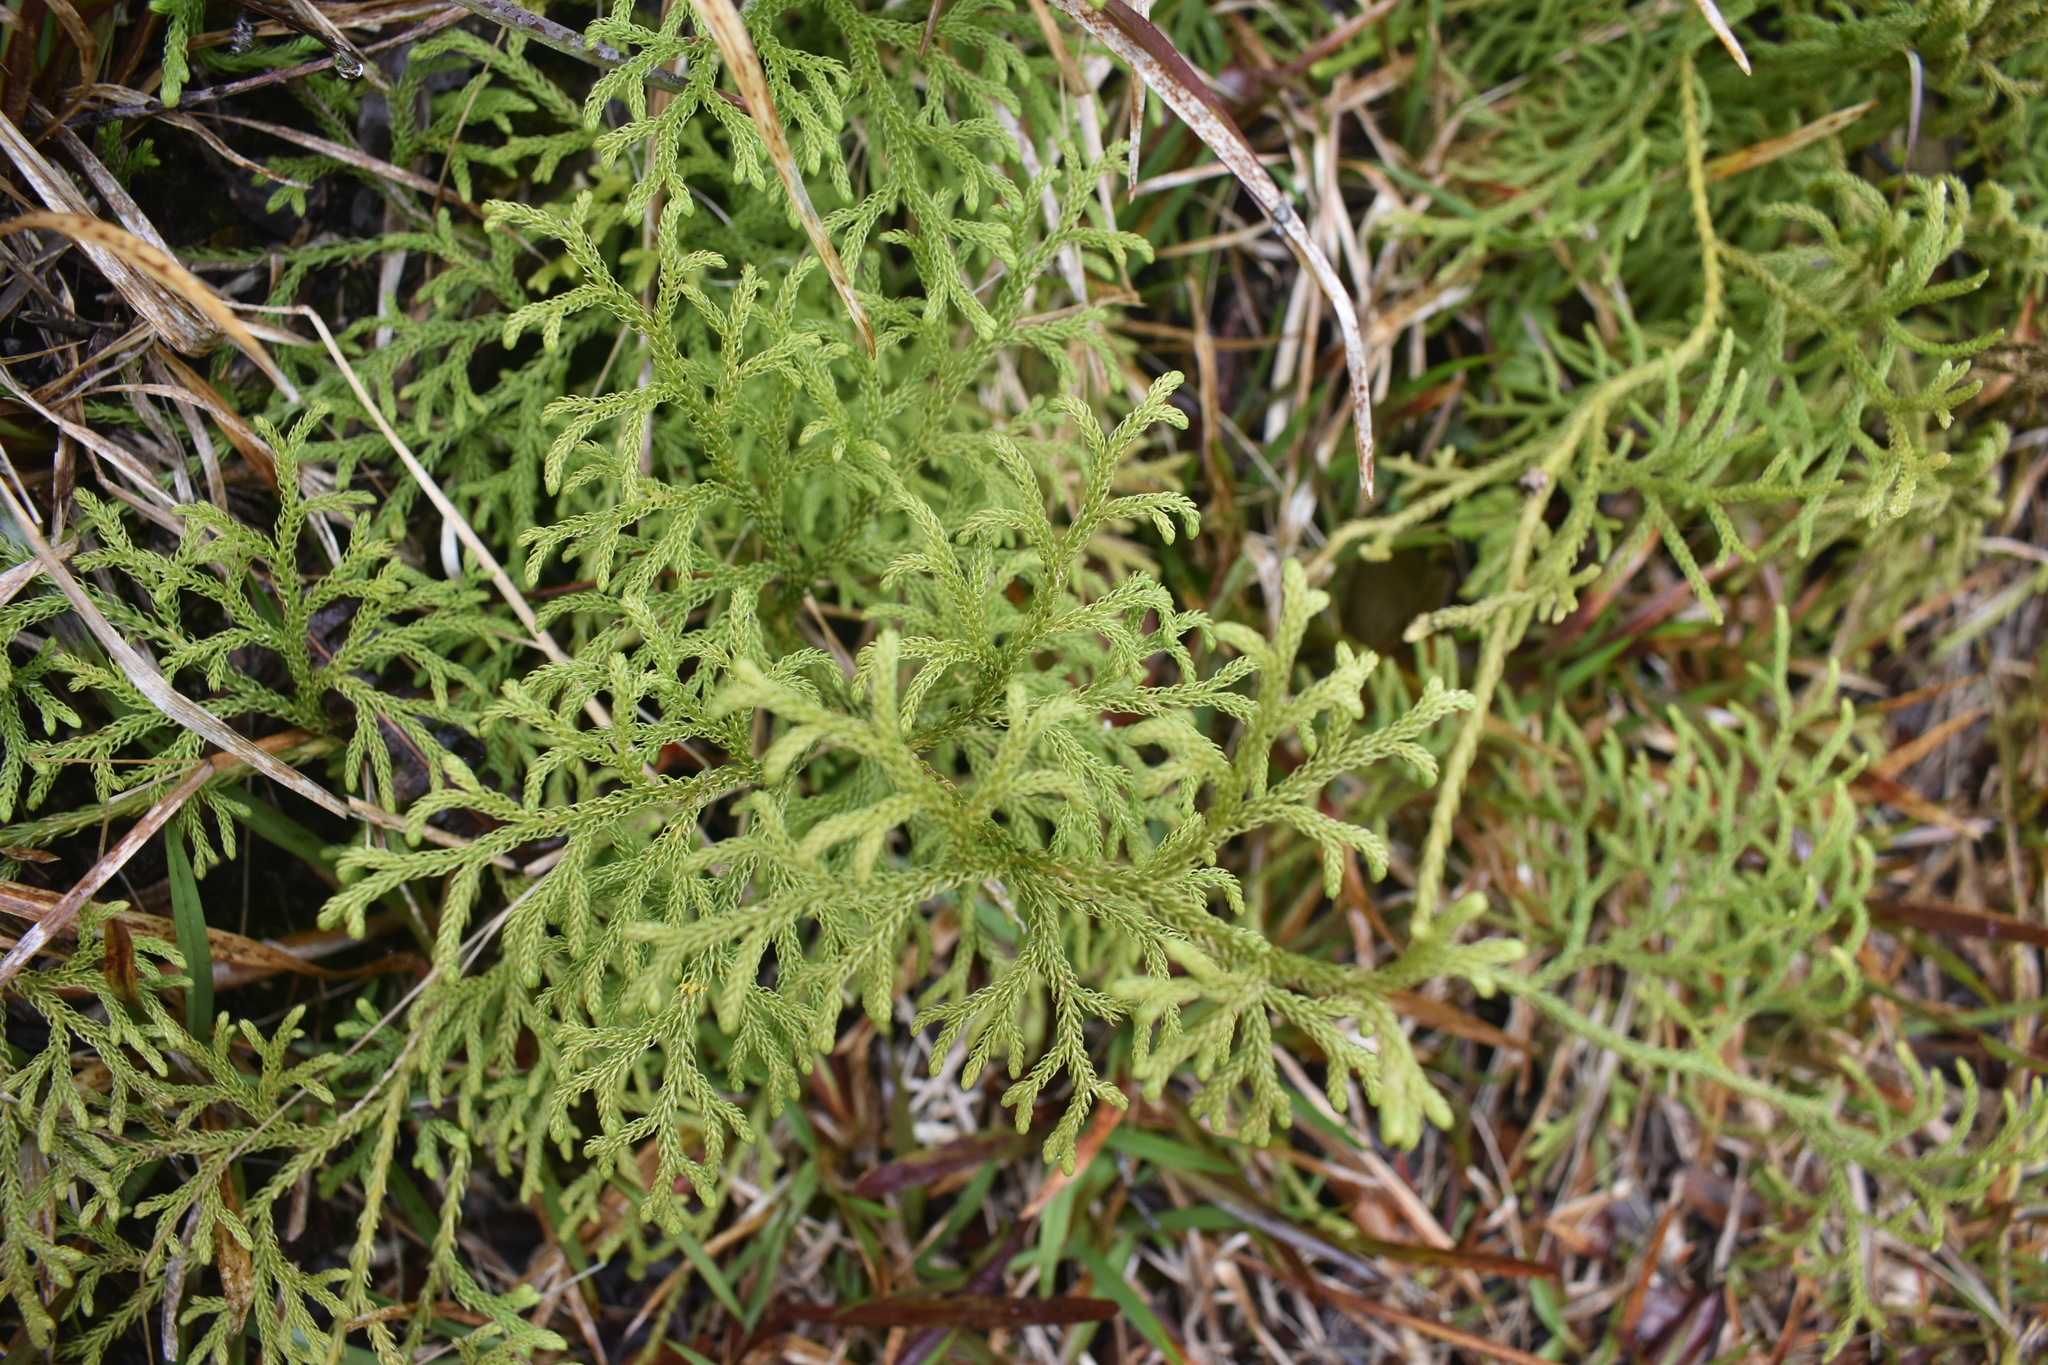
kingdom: Plantae
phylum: Tracheophyta
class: Lycopodiopsida
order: Lycopodiales
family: Lycopodiaceae
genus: Palhinhaea
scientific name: Palhinhaea cernua
